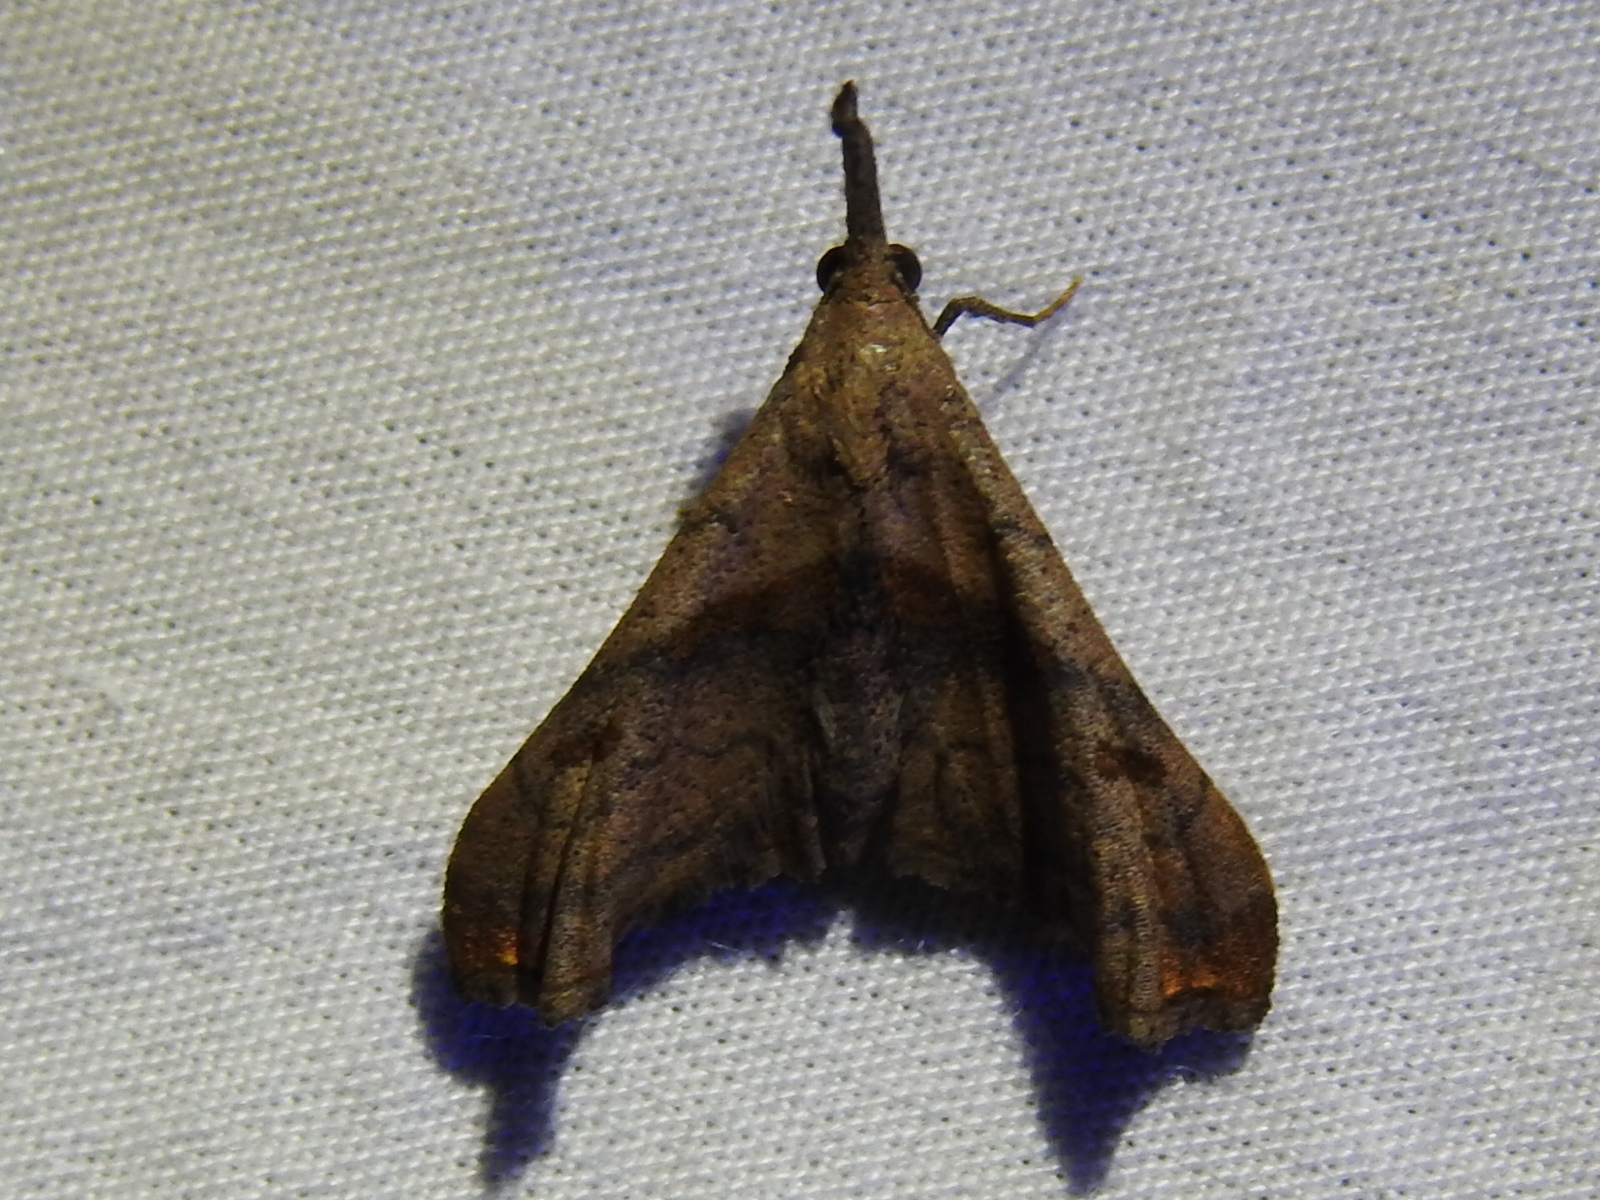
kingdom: Animalia
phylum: Arthropoda
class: Insecta
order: Lepidoptera
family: Erebidae
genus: Palthis
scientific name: Palthis angulalis
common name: Dark-spotted palthis moth
